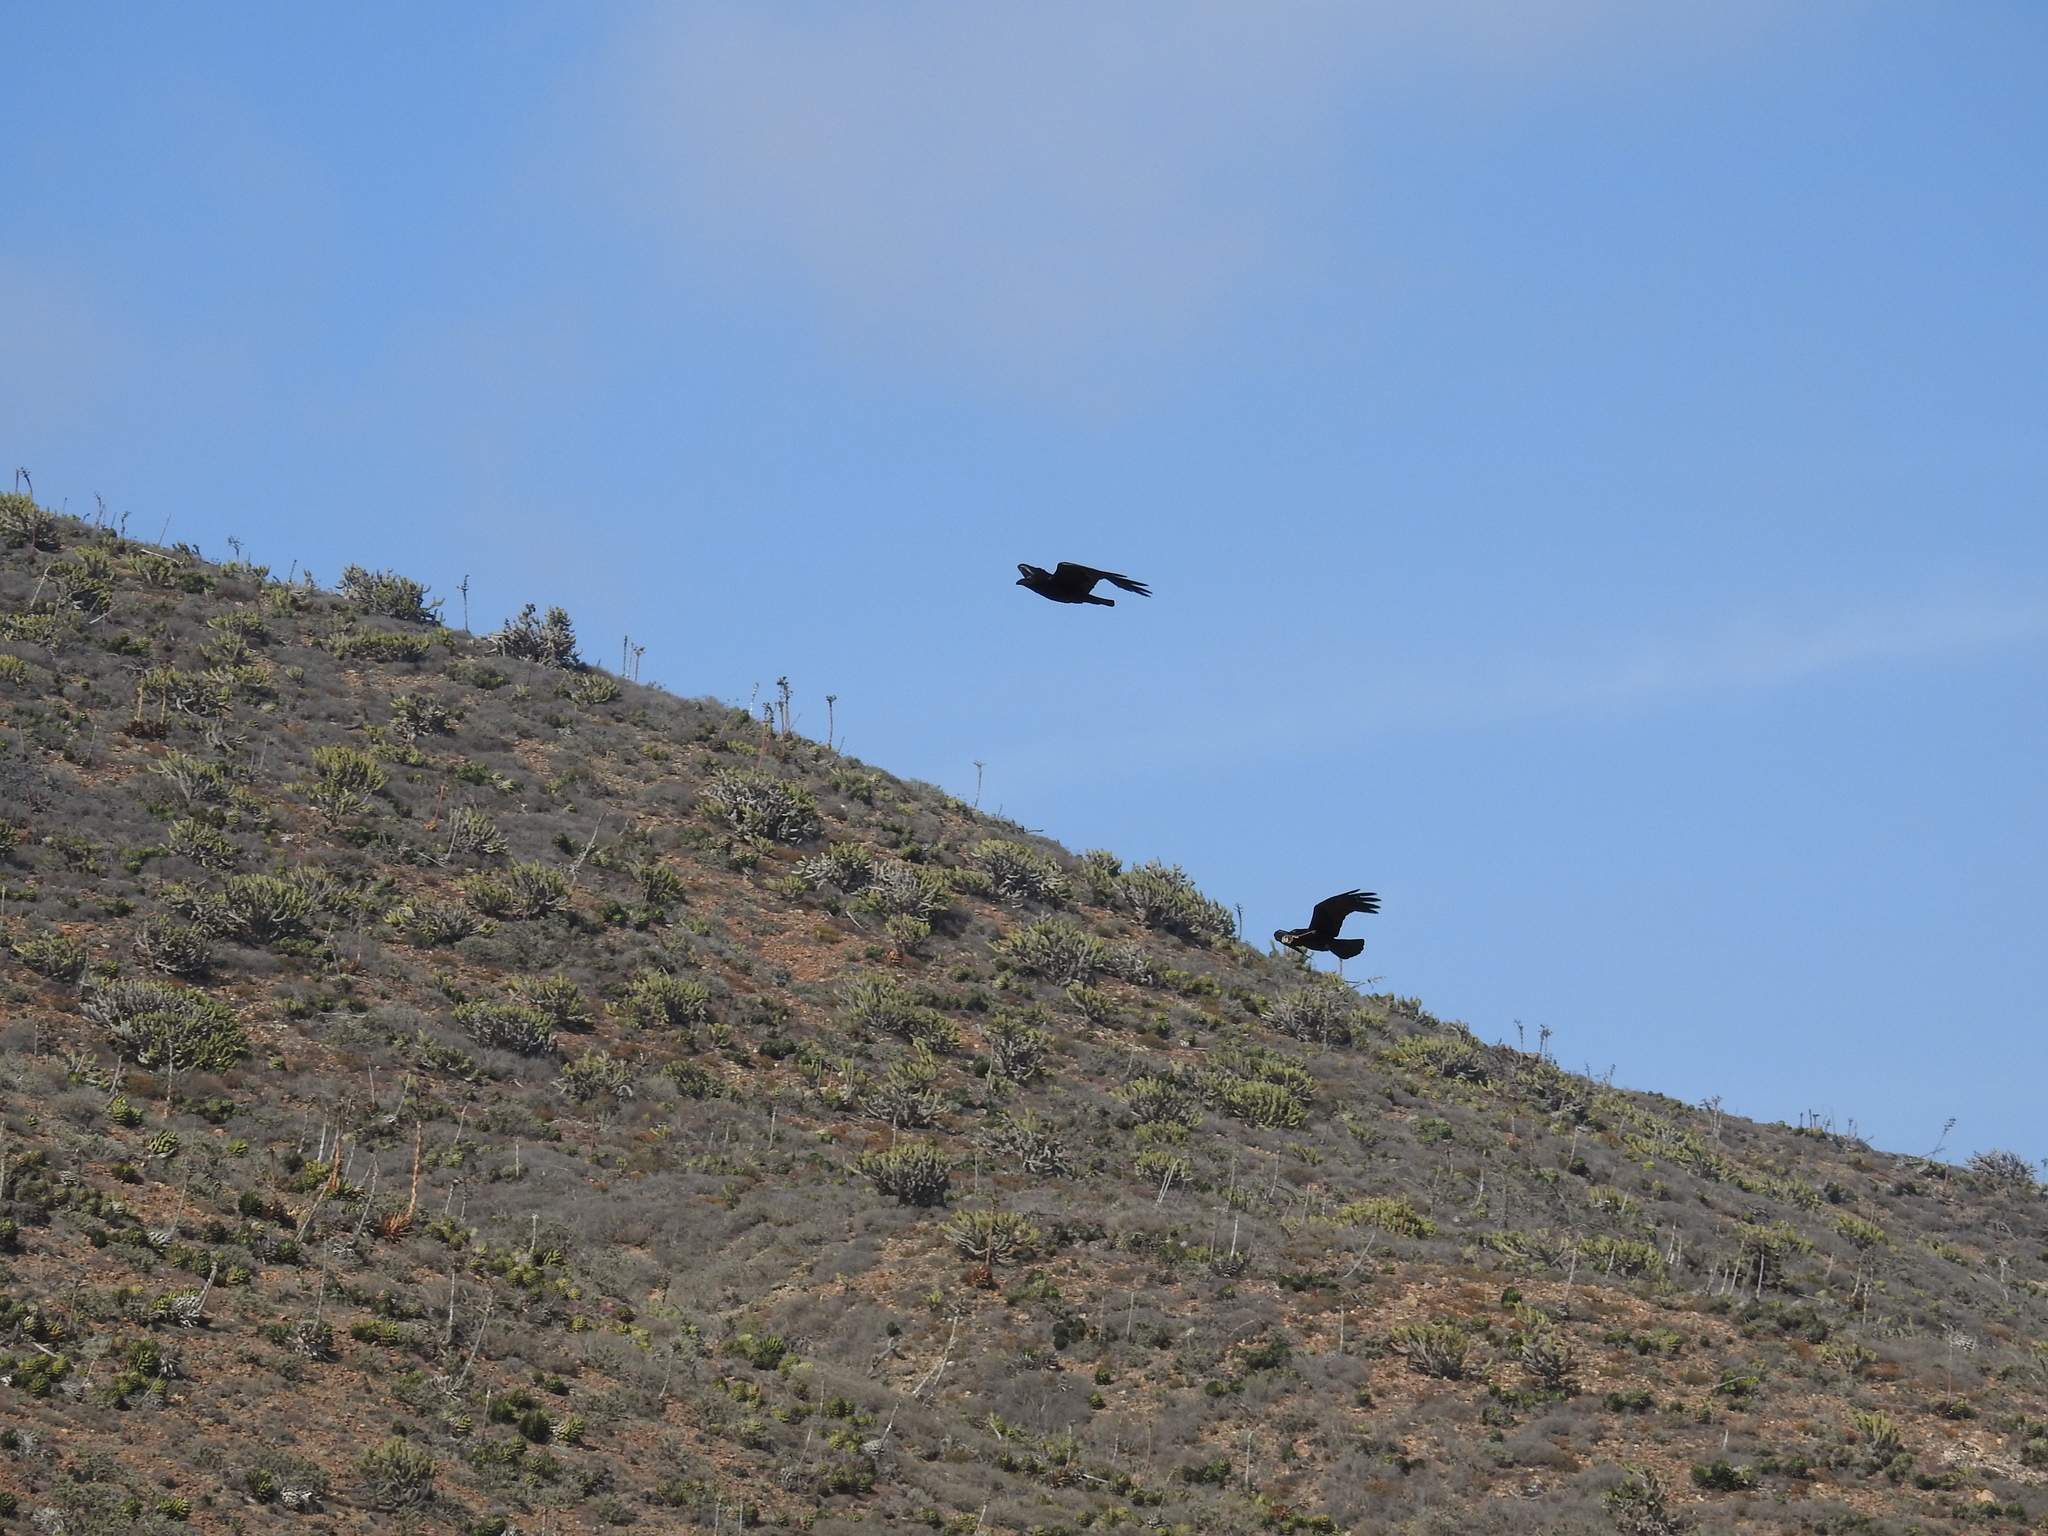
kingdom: Animalia
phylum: Chordata
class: Aves
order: Passeriformes
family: Corvidae
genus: Corvus
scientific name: Corvus corax
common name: Common raven
